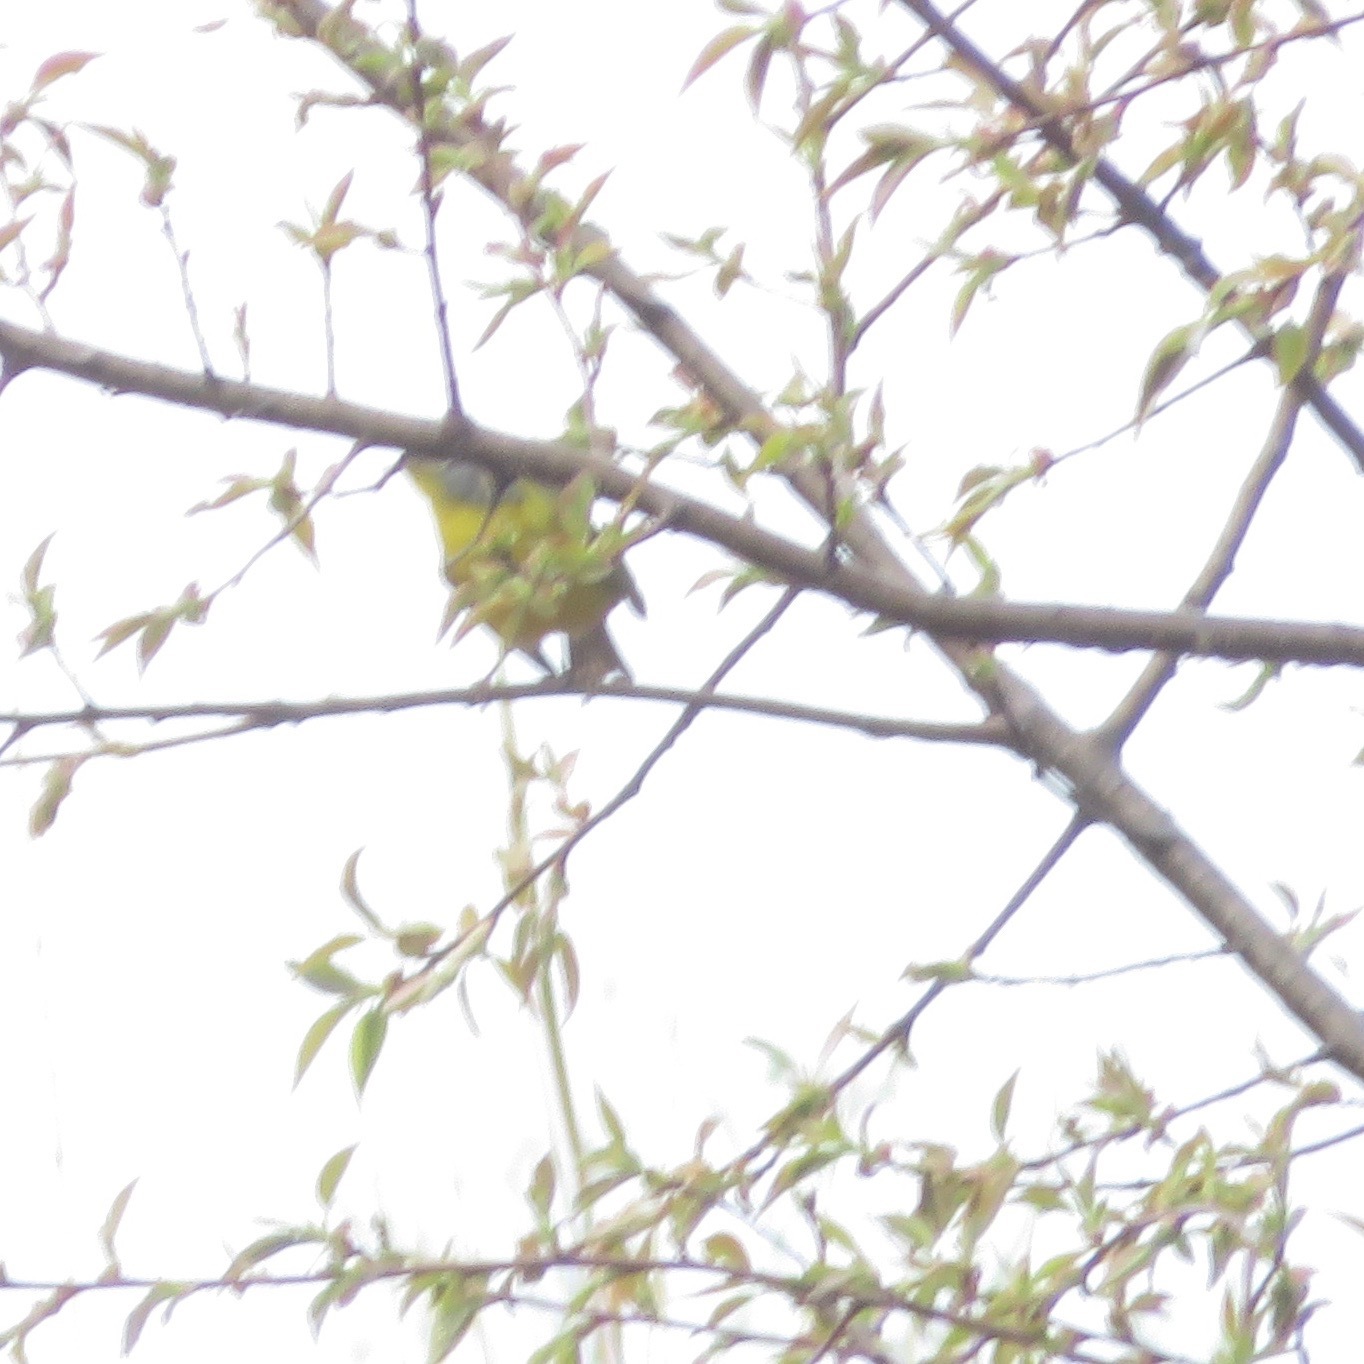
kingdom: Animalia
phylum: Chordata
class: Aves
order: Passeriformes
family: Fringillidae
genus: Spinus
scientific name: Spinus tristis
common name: American goldfinch
